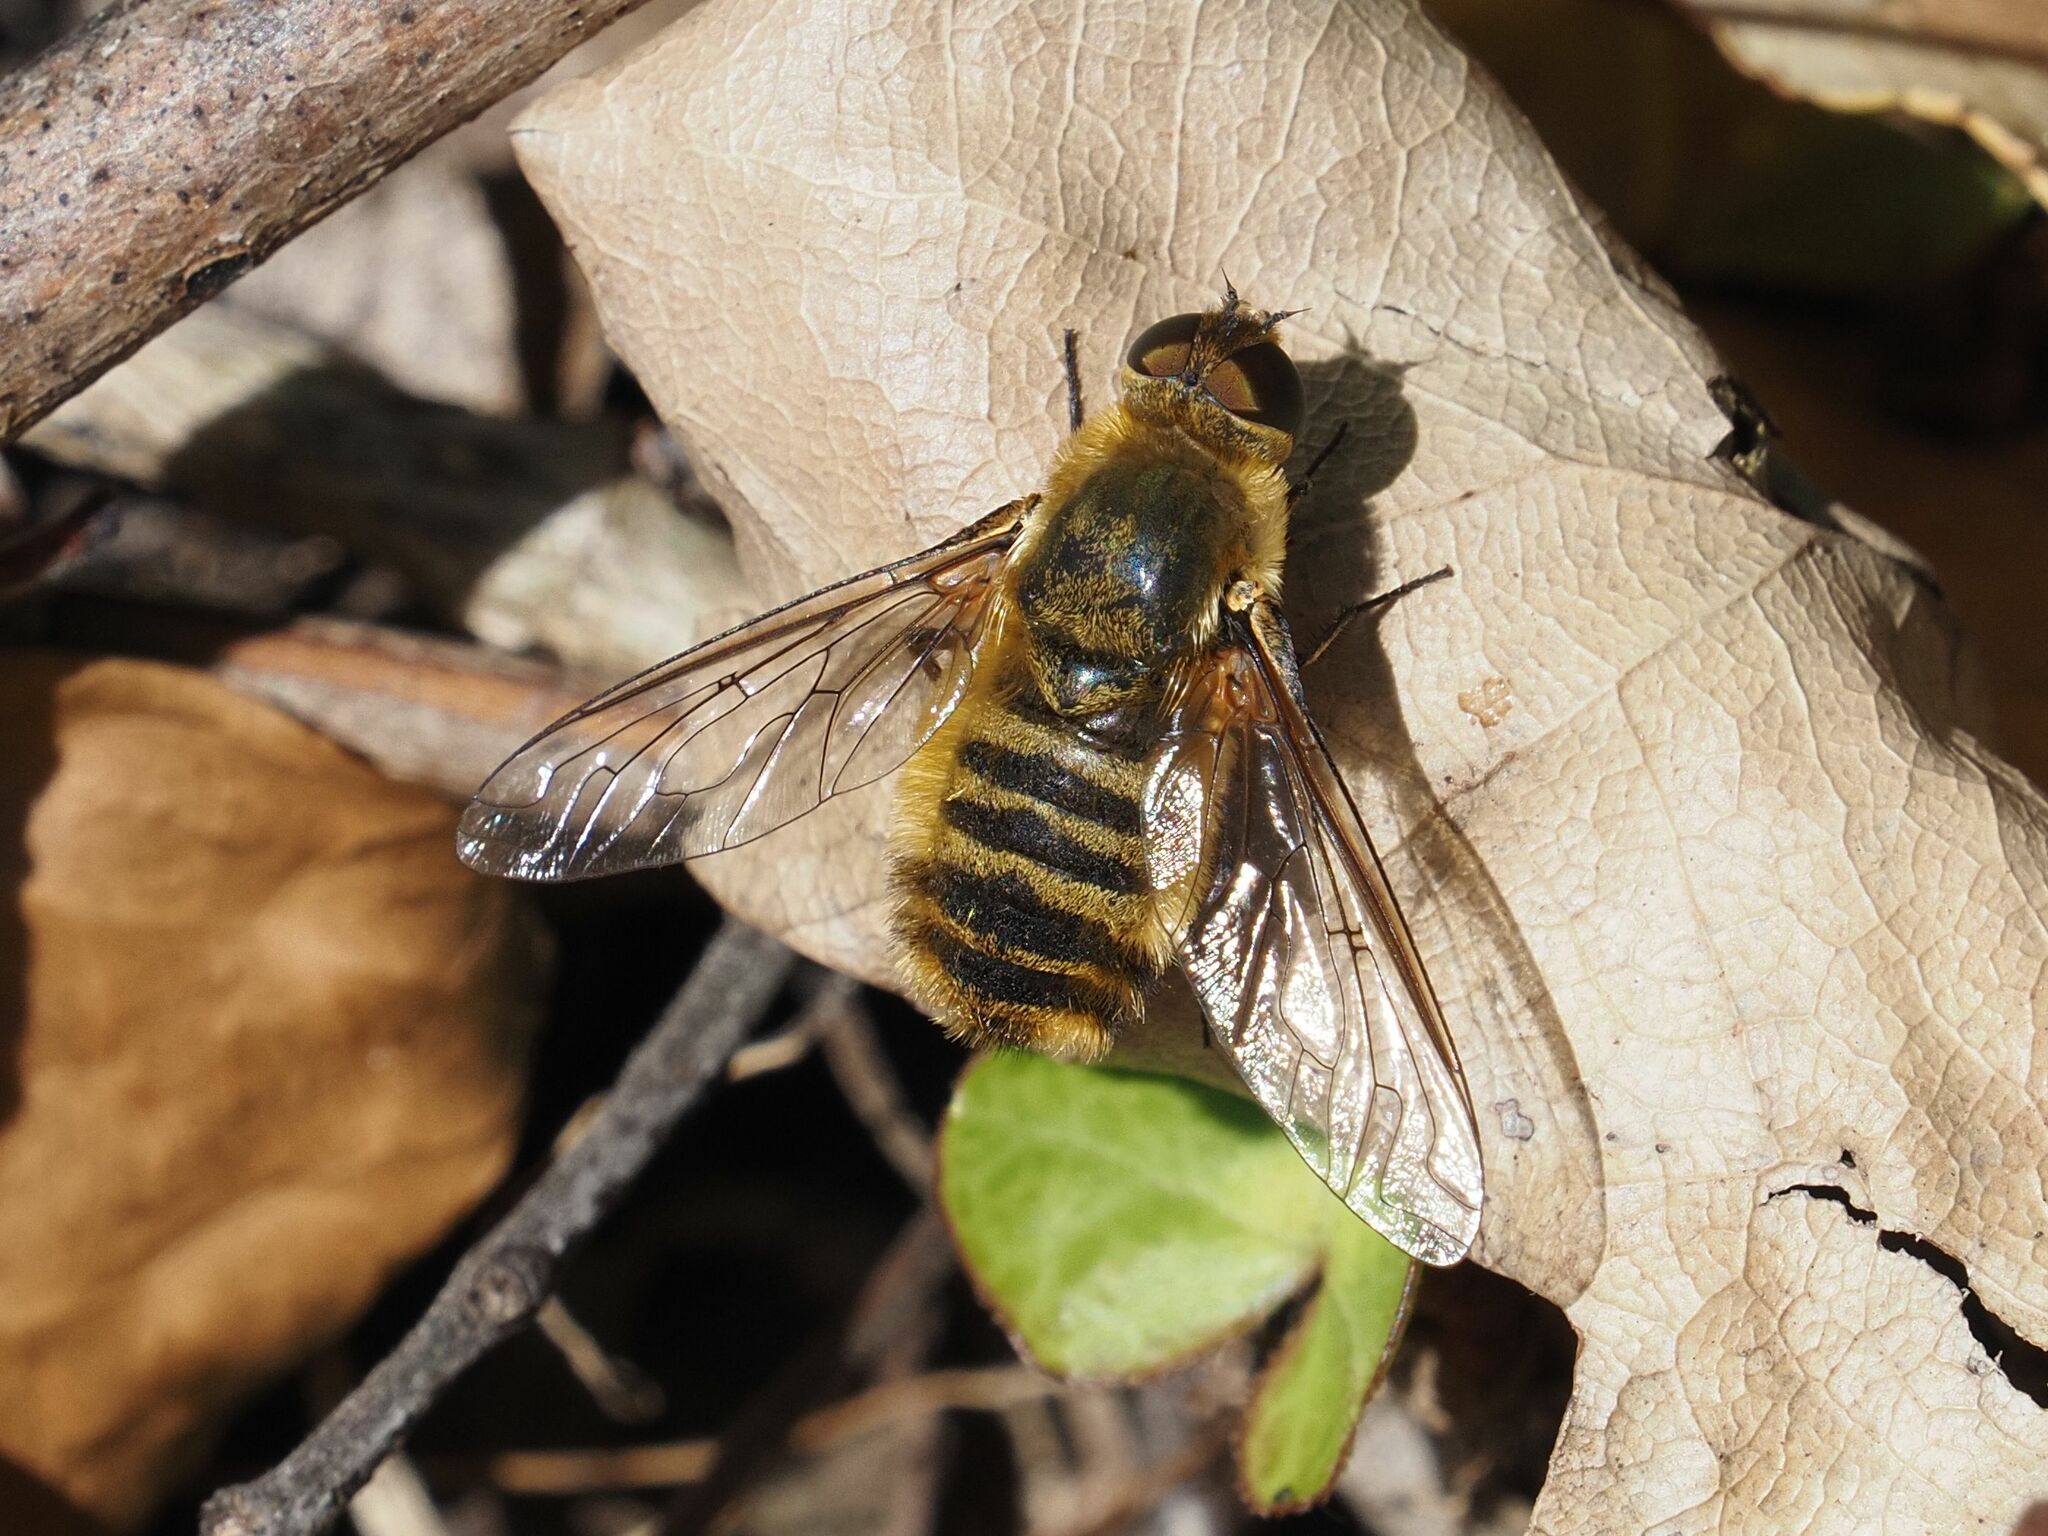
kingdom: Animalia
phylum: Arthropoda
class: Insecta
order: Diptera
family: Bombyliidae
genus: Villa
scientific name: Villa hottentotta
